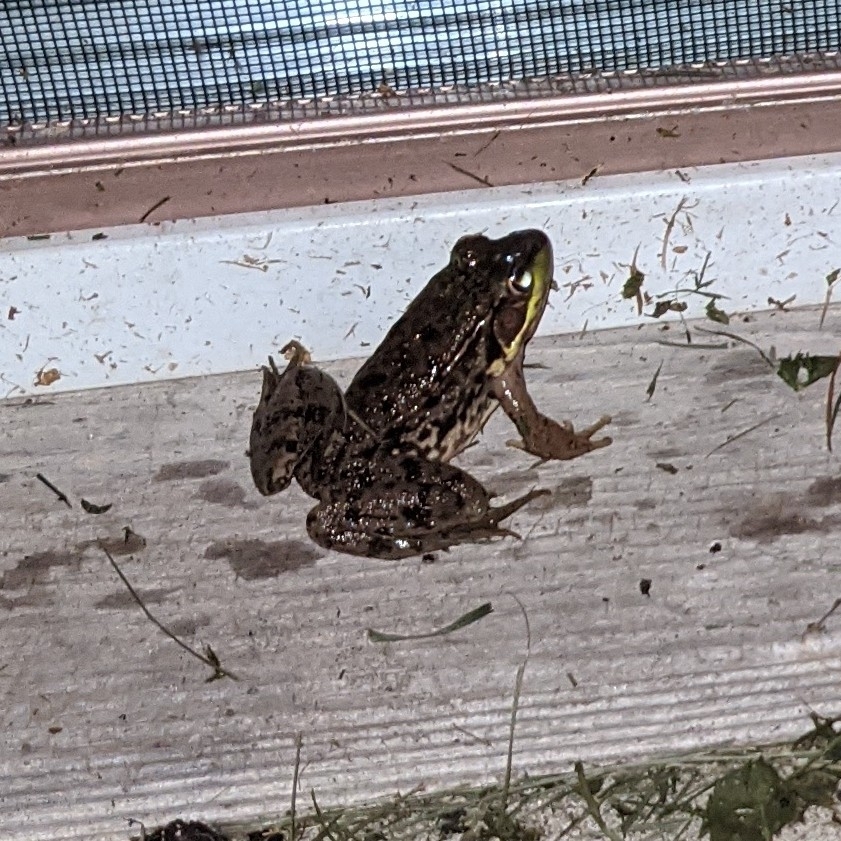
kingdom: Animalia
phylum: Chordata
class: Amphibia
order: Anura
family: Ranidae
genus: Lithobates
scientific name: Lithobates clamitans
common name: Green frog
